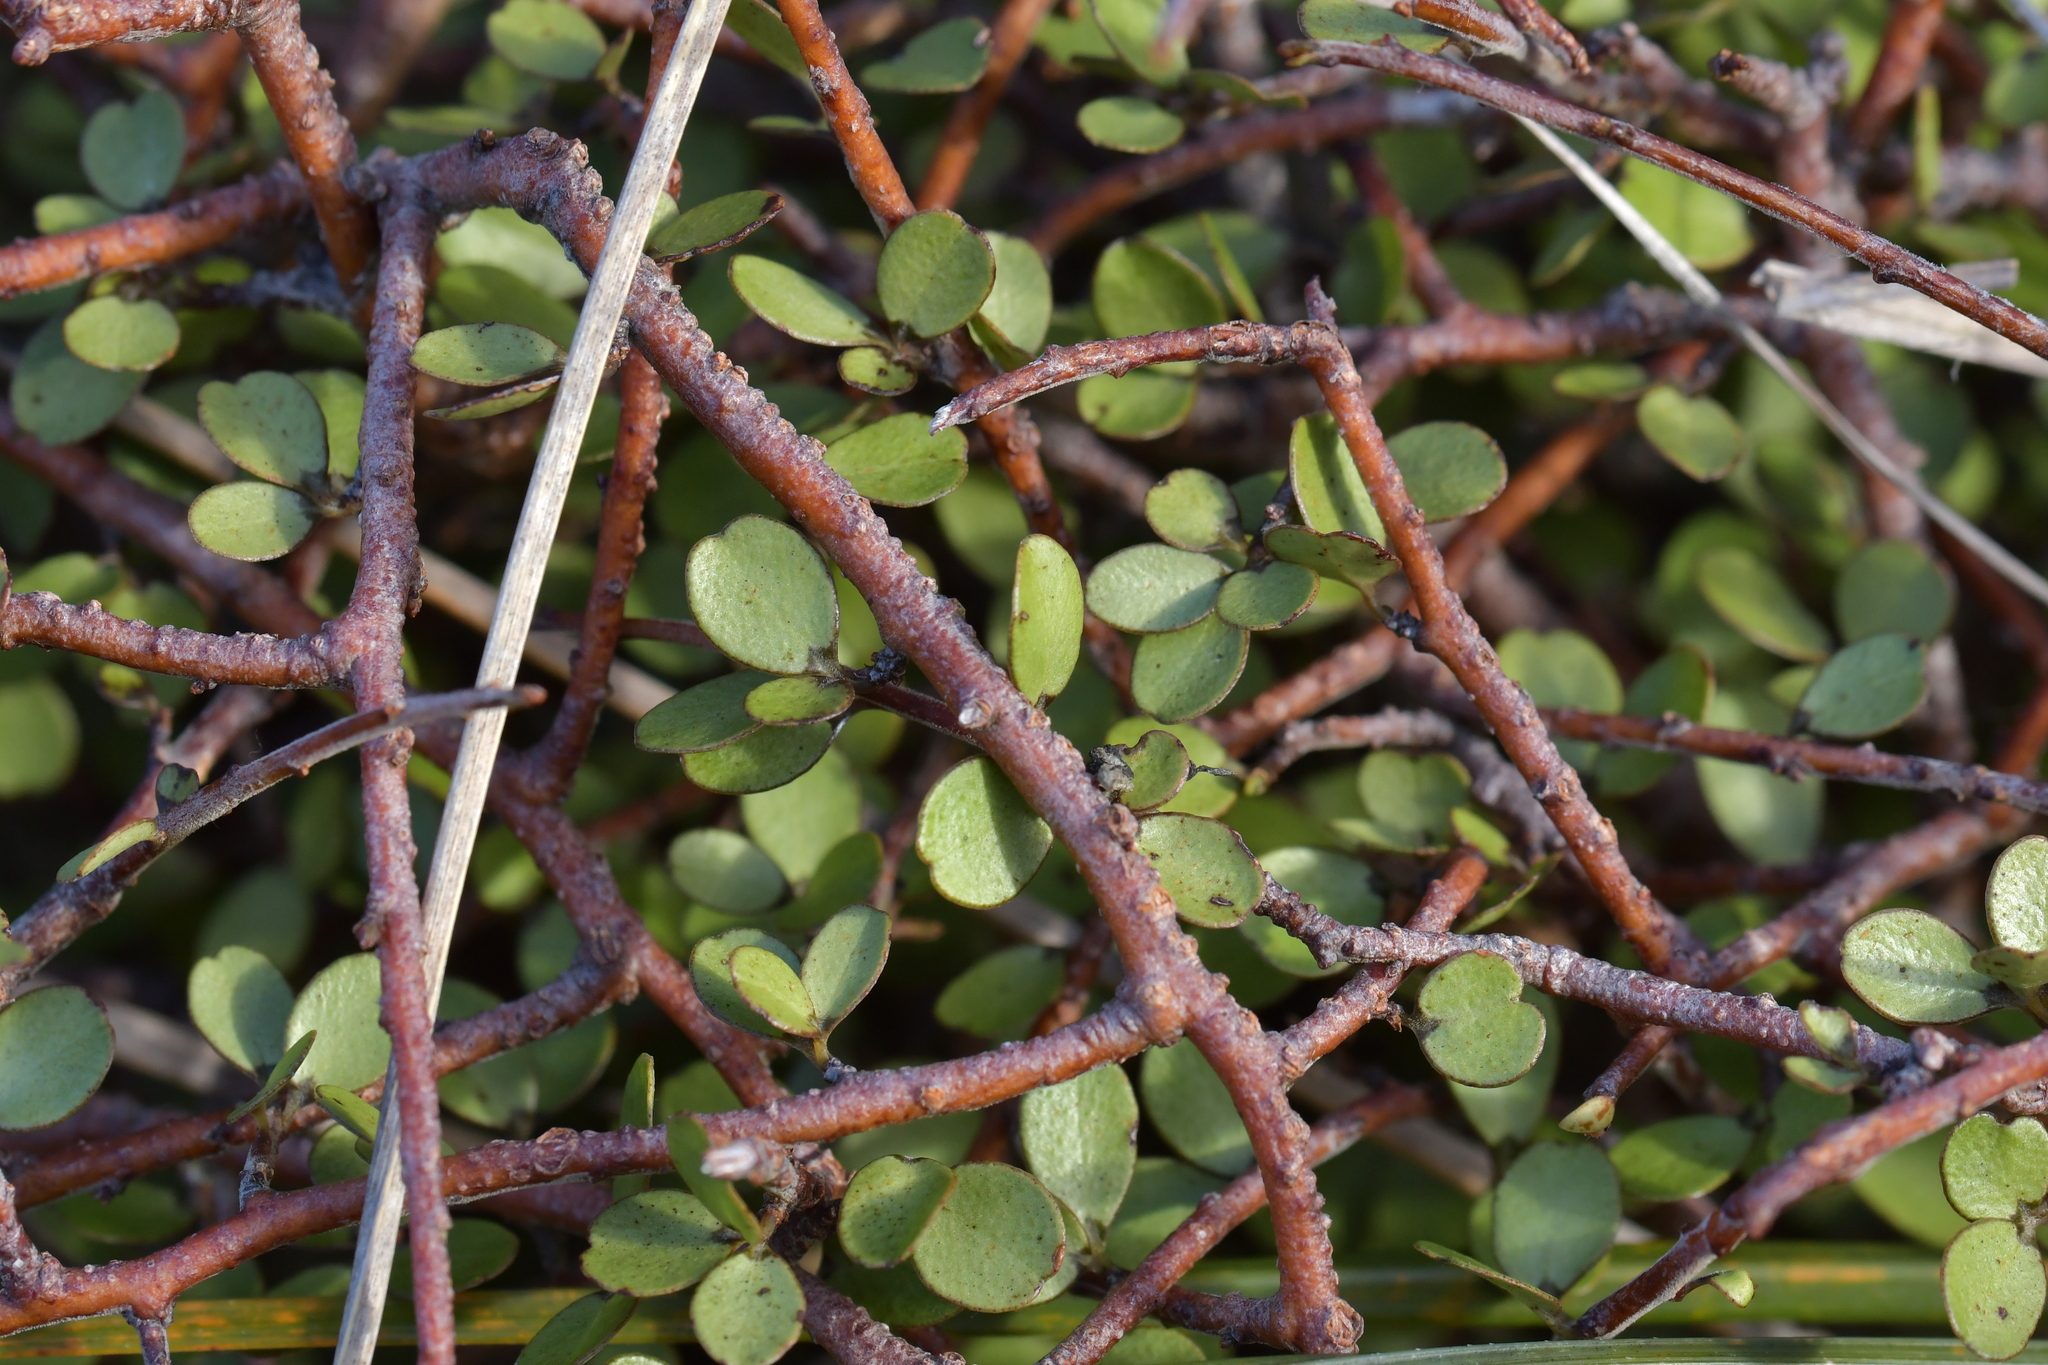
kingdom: Plantae
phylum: Tracheophyta
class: Magnoliopsida
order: Ericales
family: Primulaceae
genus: Myrsine
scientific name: Myrsine divaricata
